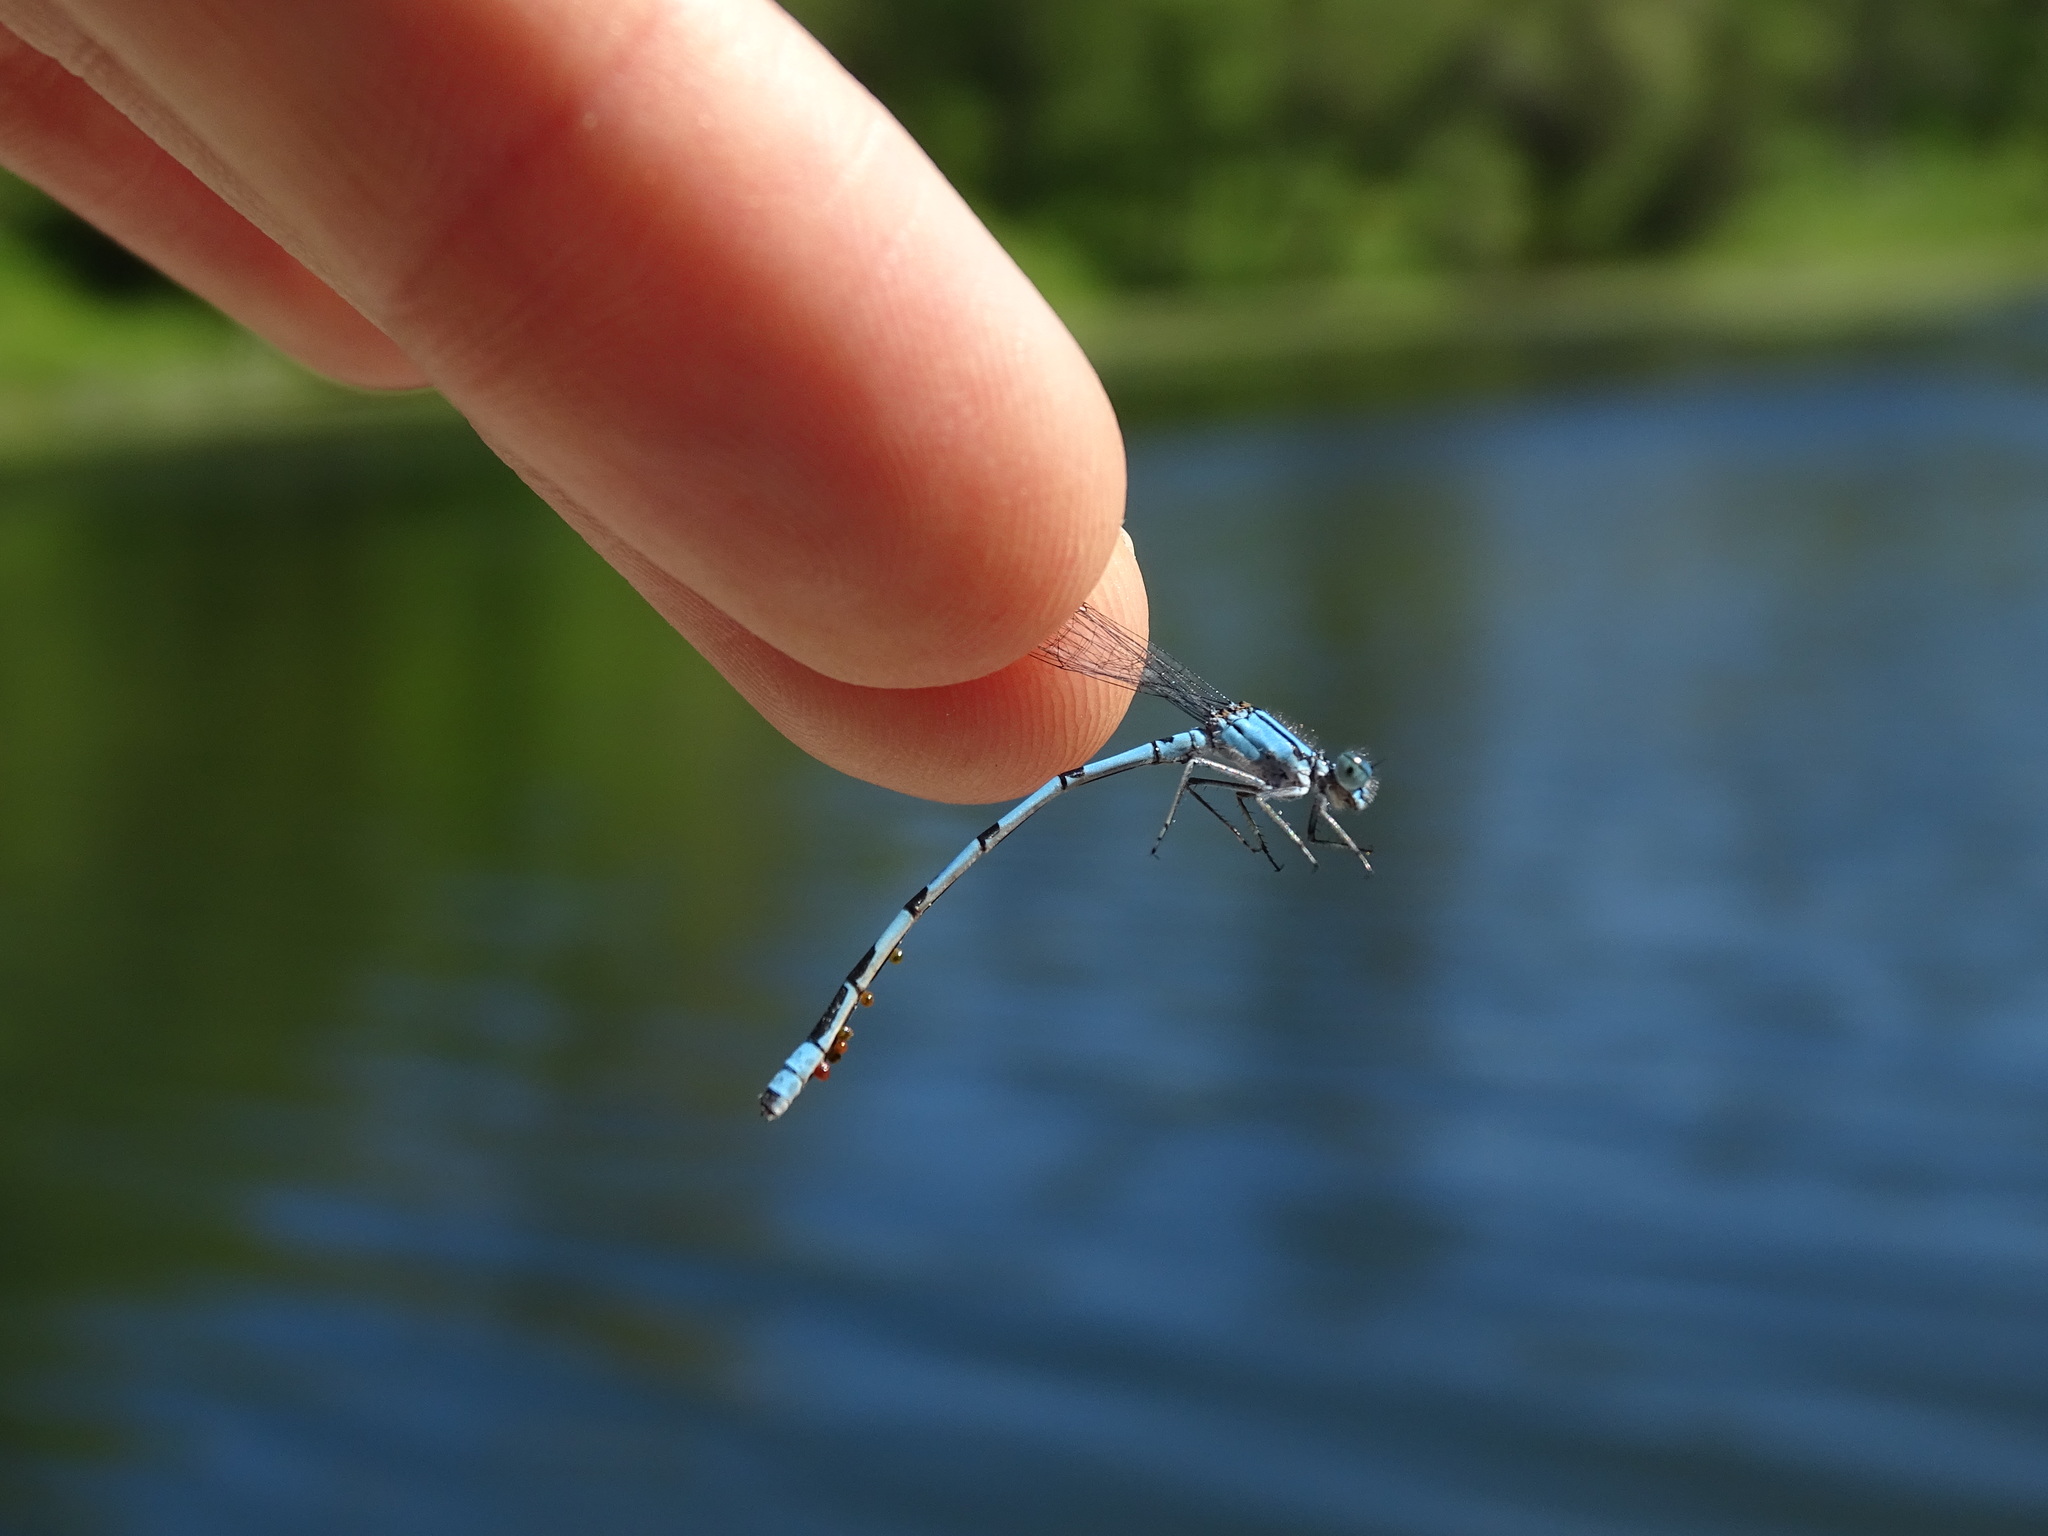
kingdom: Animalia
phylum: Arthropoda
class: Insecta
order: Odonata
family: Coenagrionidae
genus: Enallagma
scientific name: Enallagma hageni
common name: Hagen's bluet
